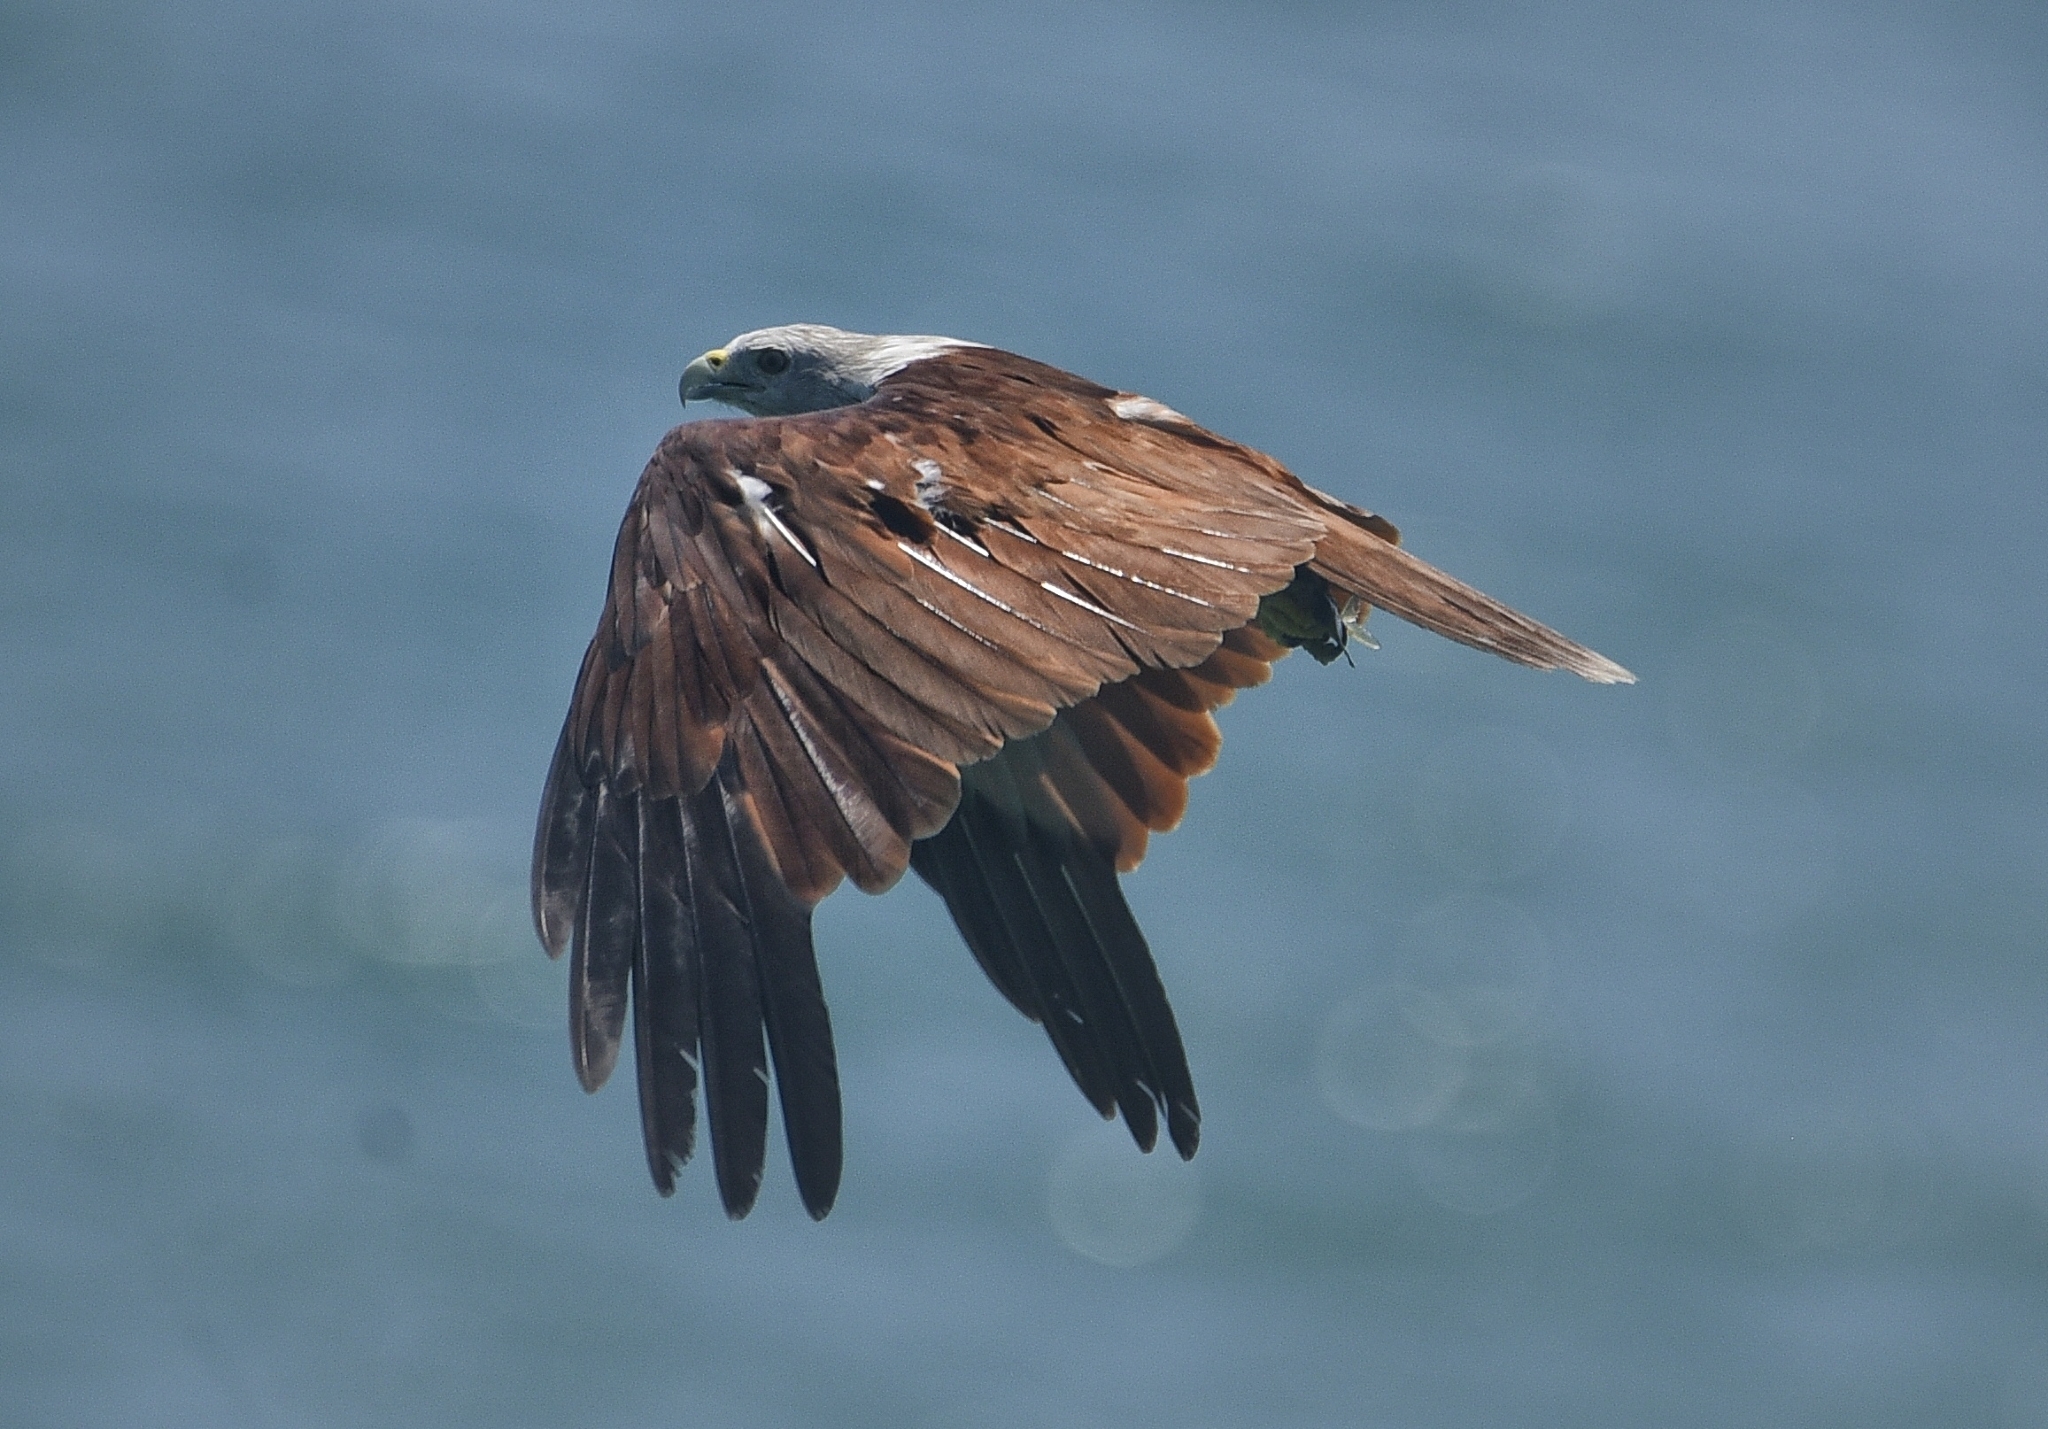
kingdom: Animalia
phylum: Chordata
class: Aves
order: Accipitriformes
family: Accipitridae
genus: Haliastur
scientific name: Haliastur indus
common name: Brahminy kite
